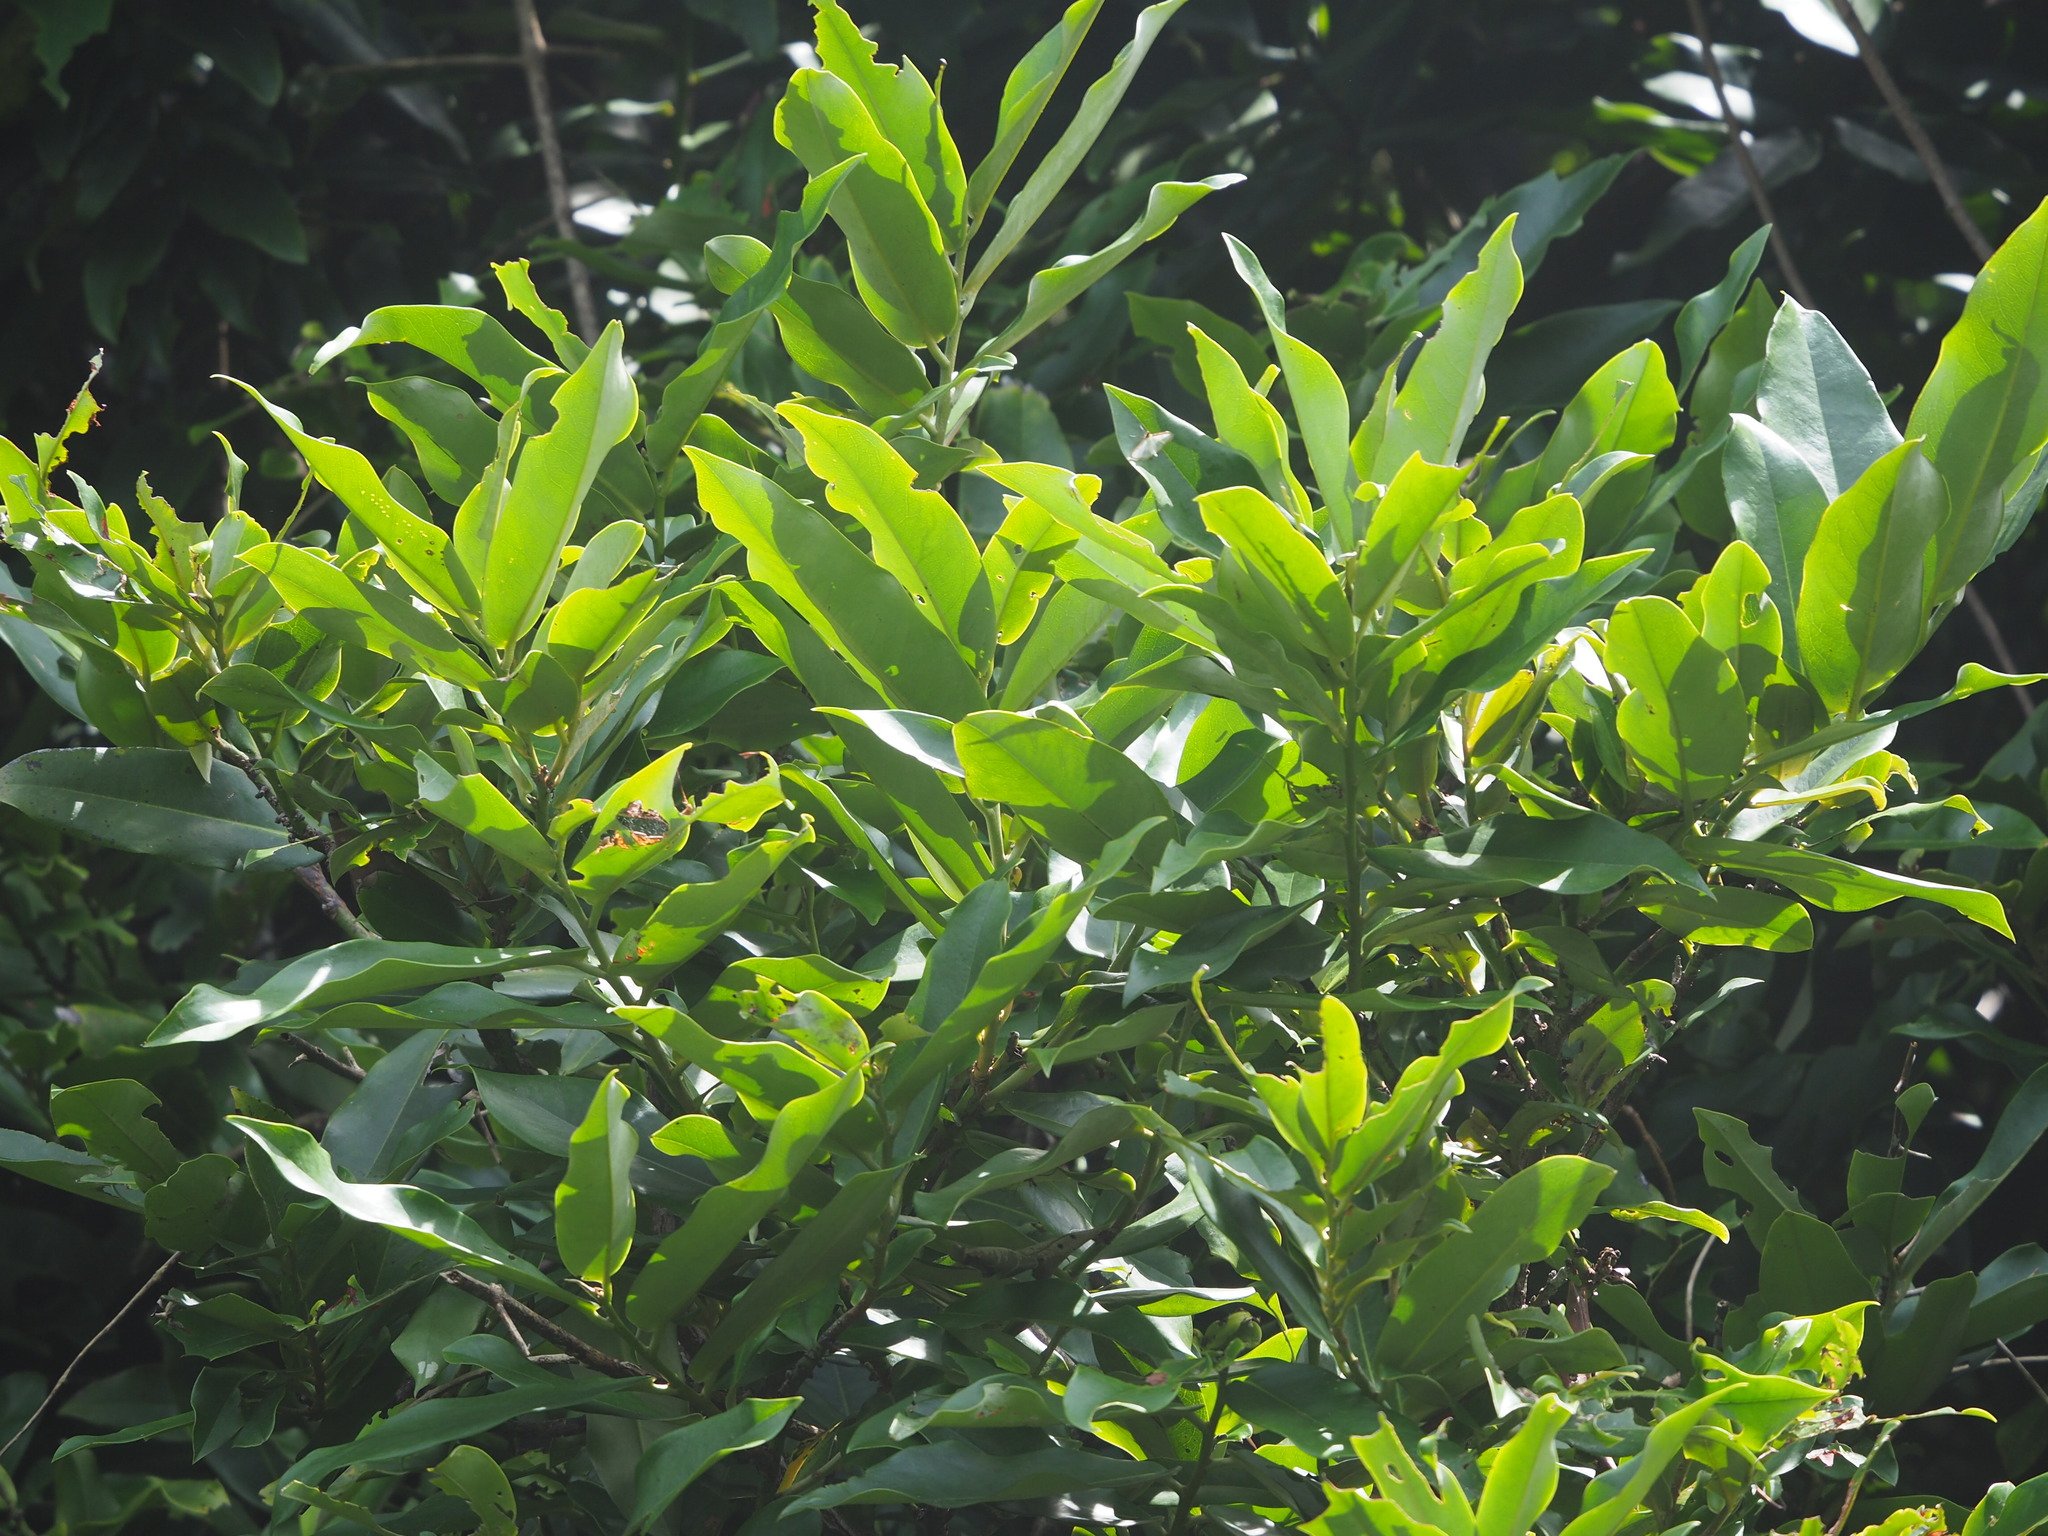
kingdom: Plantae
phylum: Tracheophyta
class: Magnoliopsida
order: Ericales
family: Ebenaceae
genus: Diospyros
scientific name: Diospyros blancoi
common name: Mabola-tree
